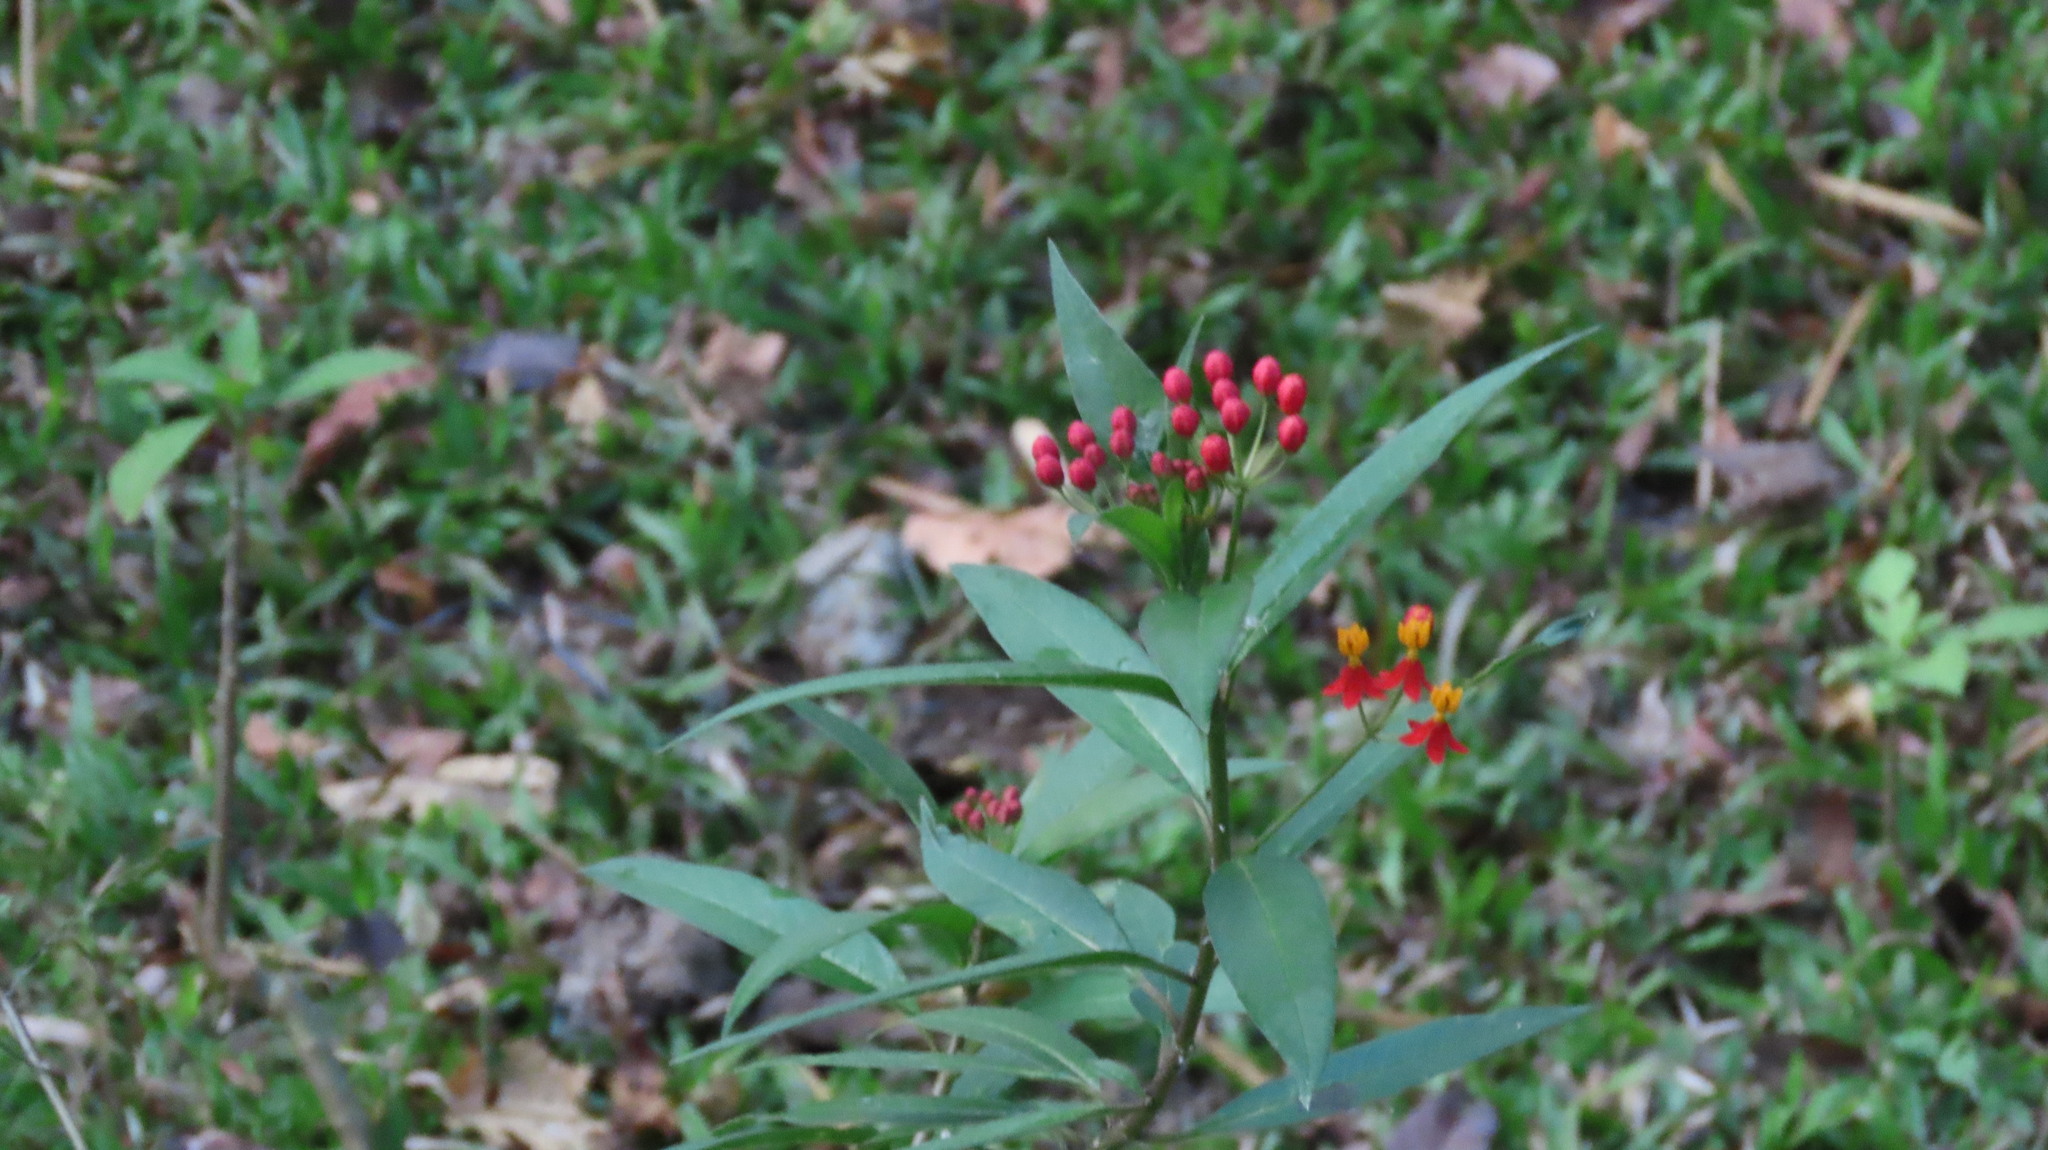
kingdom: Plantae
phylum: Tracheophyta
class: Magnoliopsida
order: Gentianales
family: Apocynaceae
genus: Asclepias
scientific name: Asclepias curassavica
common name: Bloodflower
